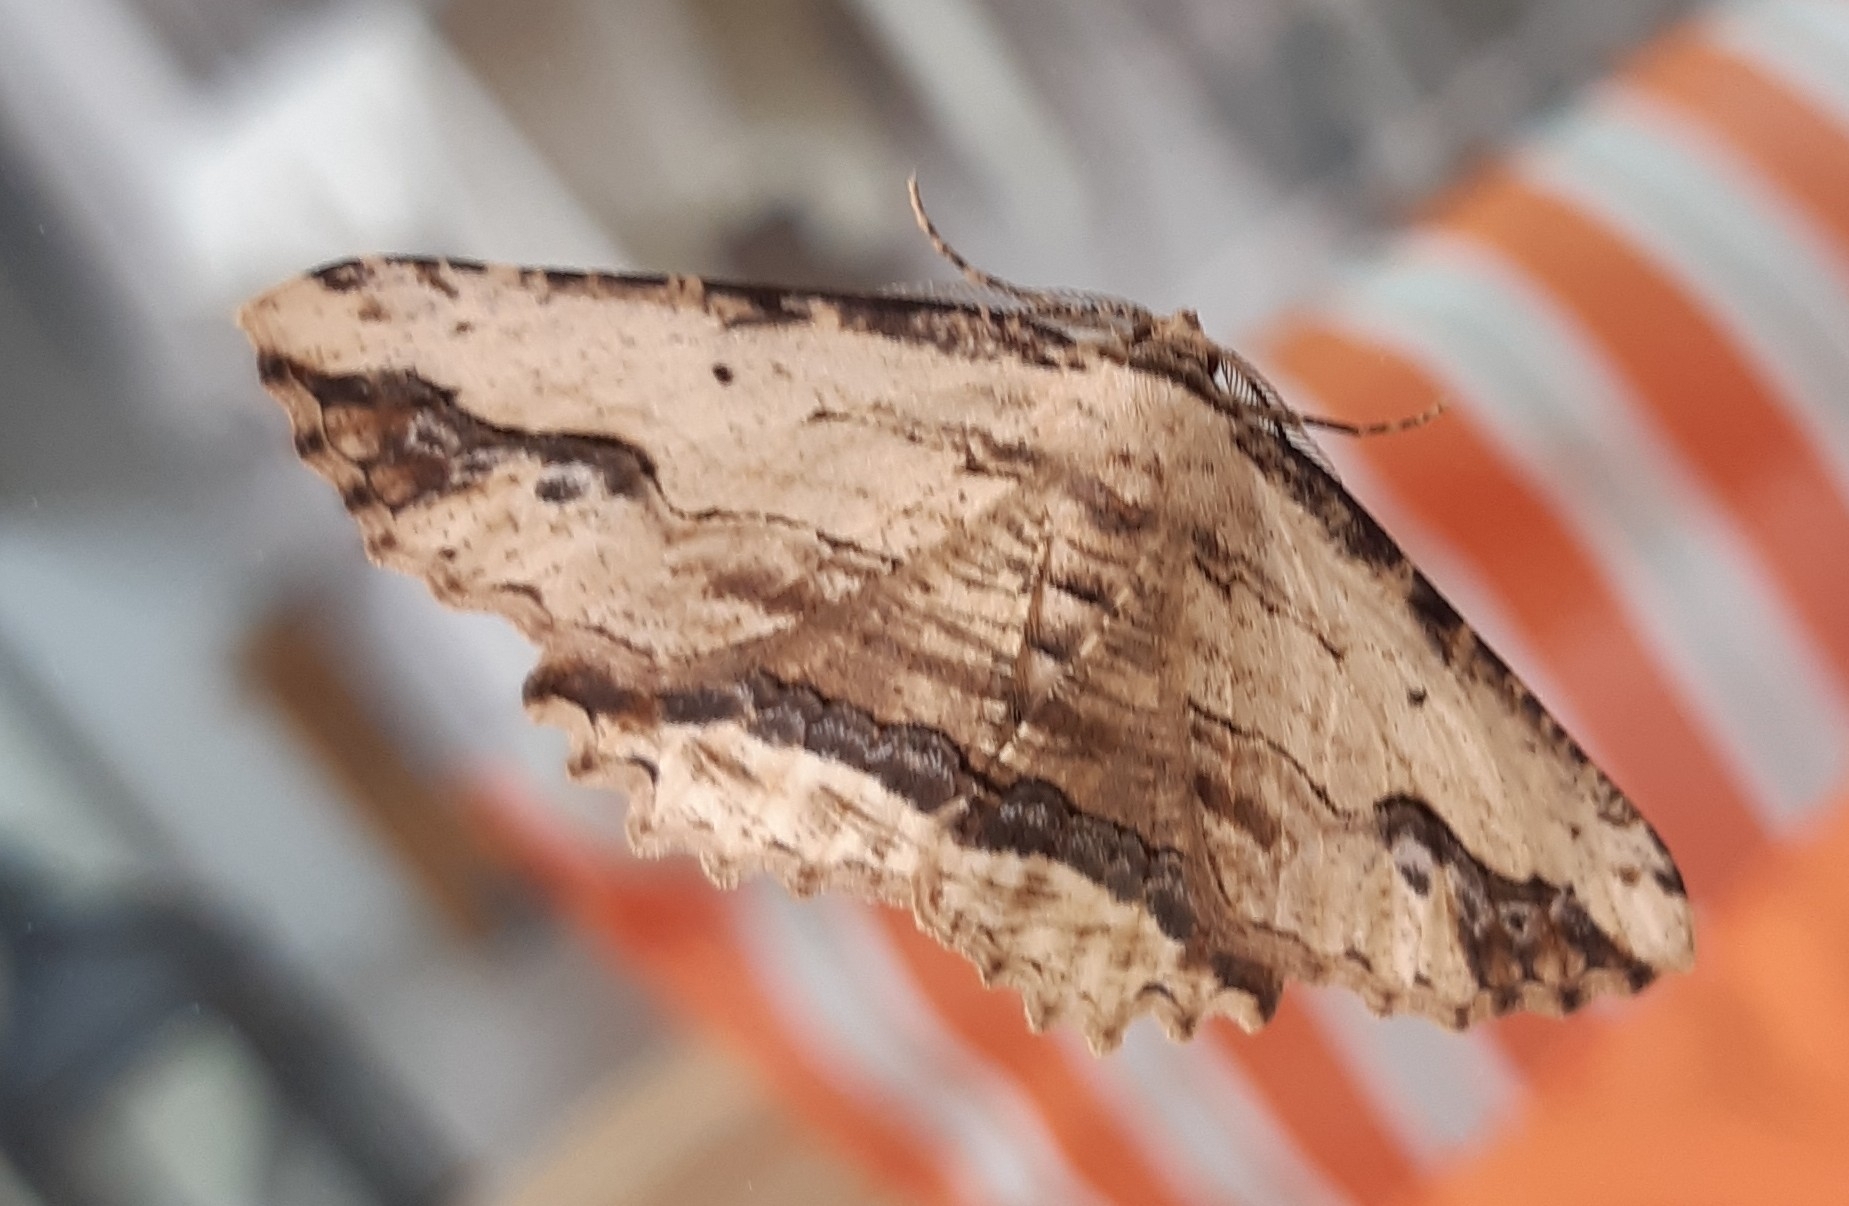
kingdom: Animalia
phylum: Arthropoda
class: Insecta
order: Lepidoptera
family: Geometridae
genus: Menophra
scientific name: Menophra abruptaria
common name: Waved umber
